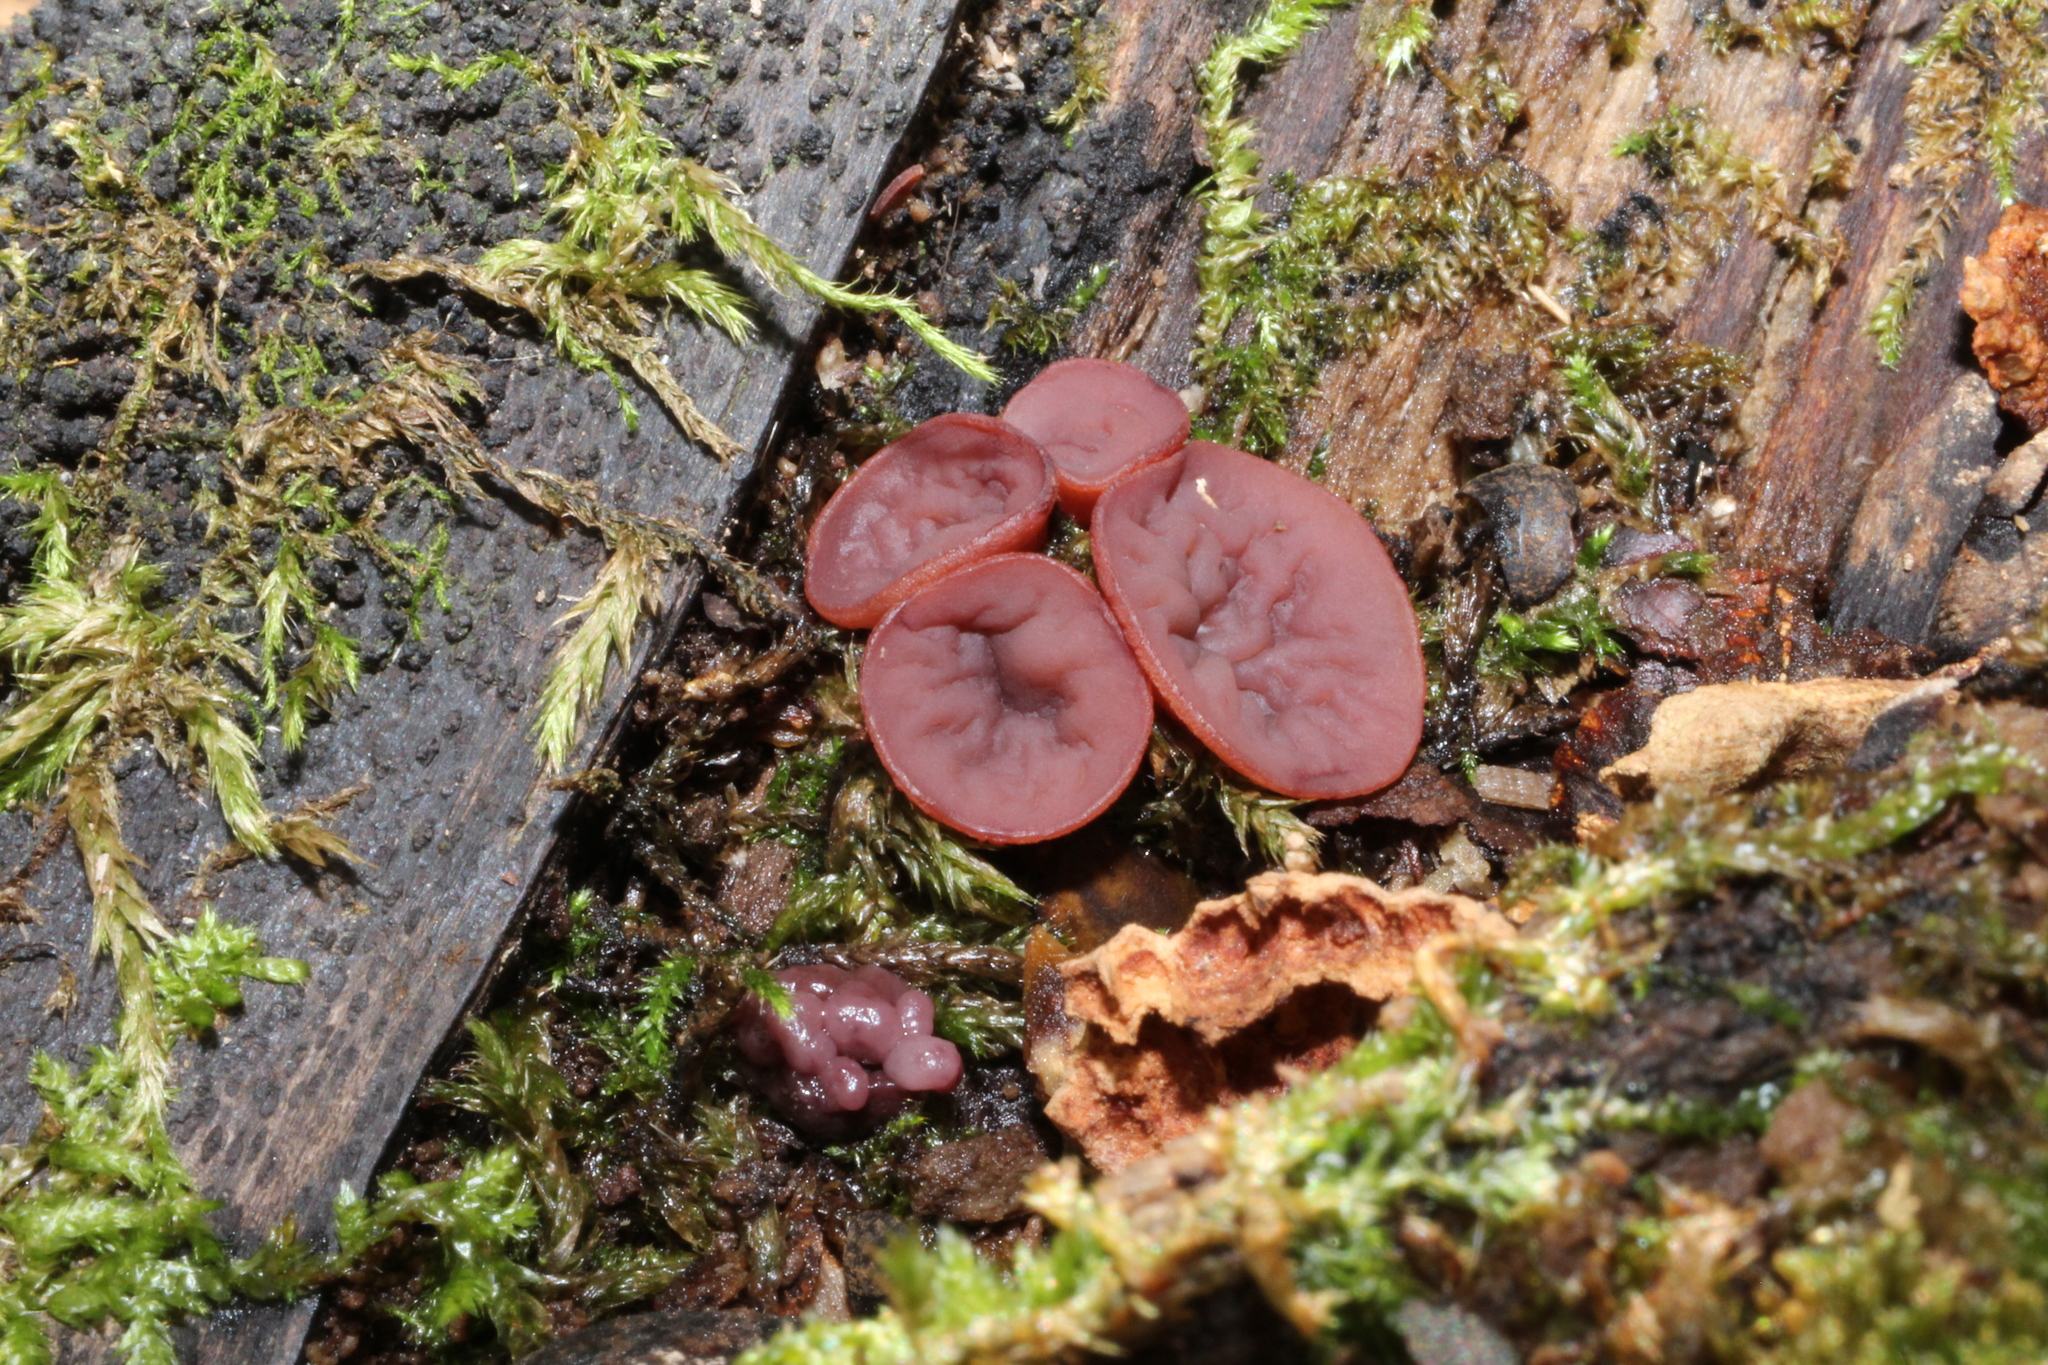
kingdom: Fungi
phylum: Ascomycota
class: Leotiomycetes
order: Helotiales
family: Gelatinodiscaceae
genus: Ascocoryne
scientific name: Ascocoryne sarcoides
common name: Purple jellydisc
